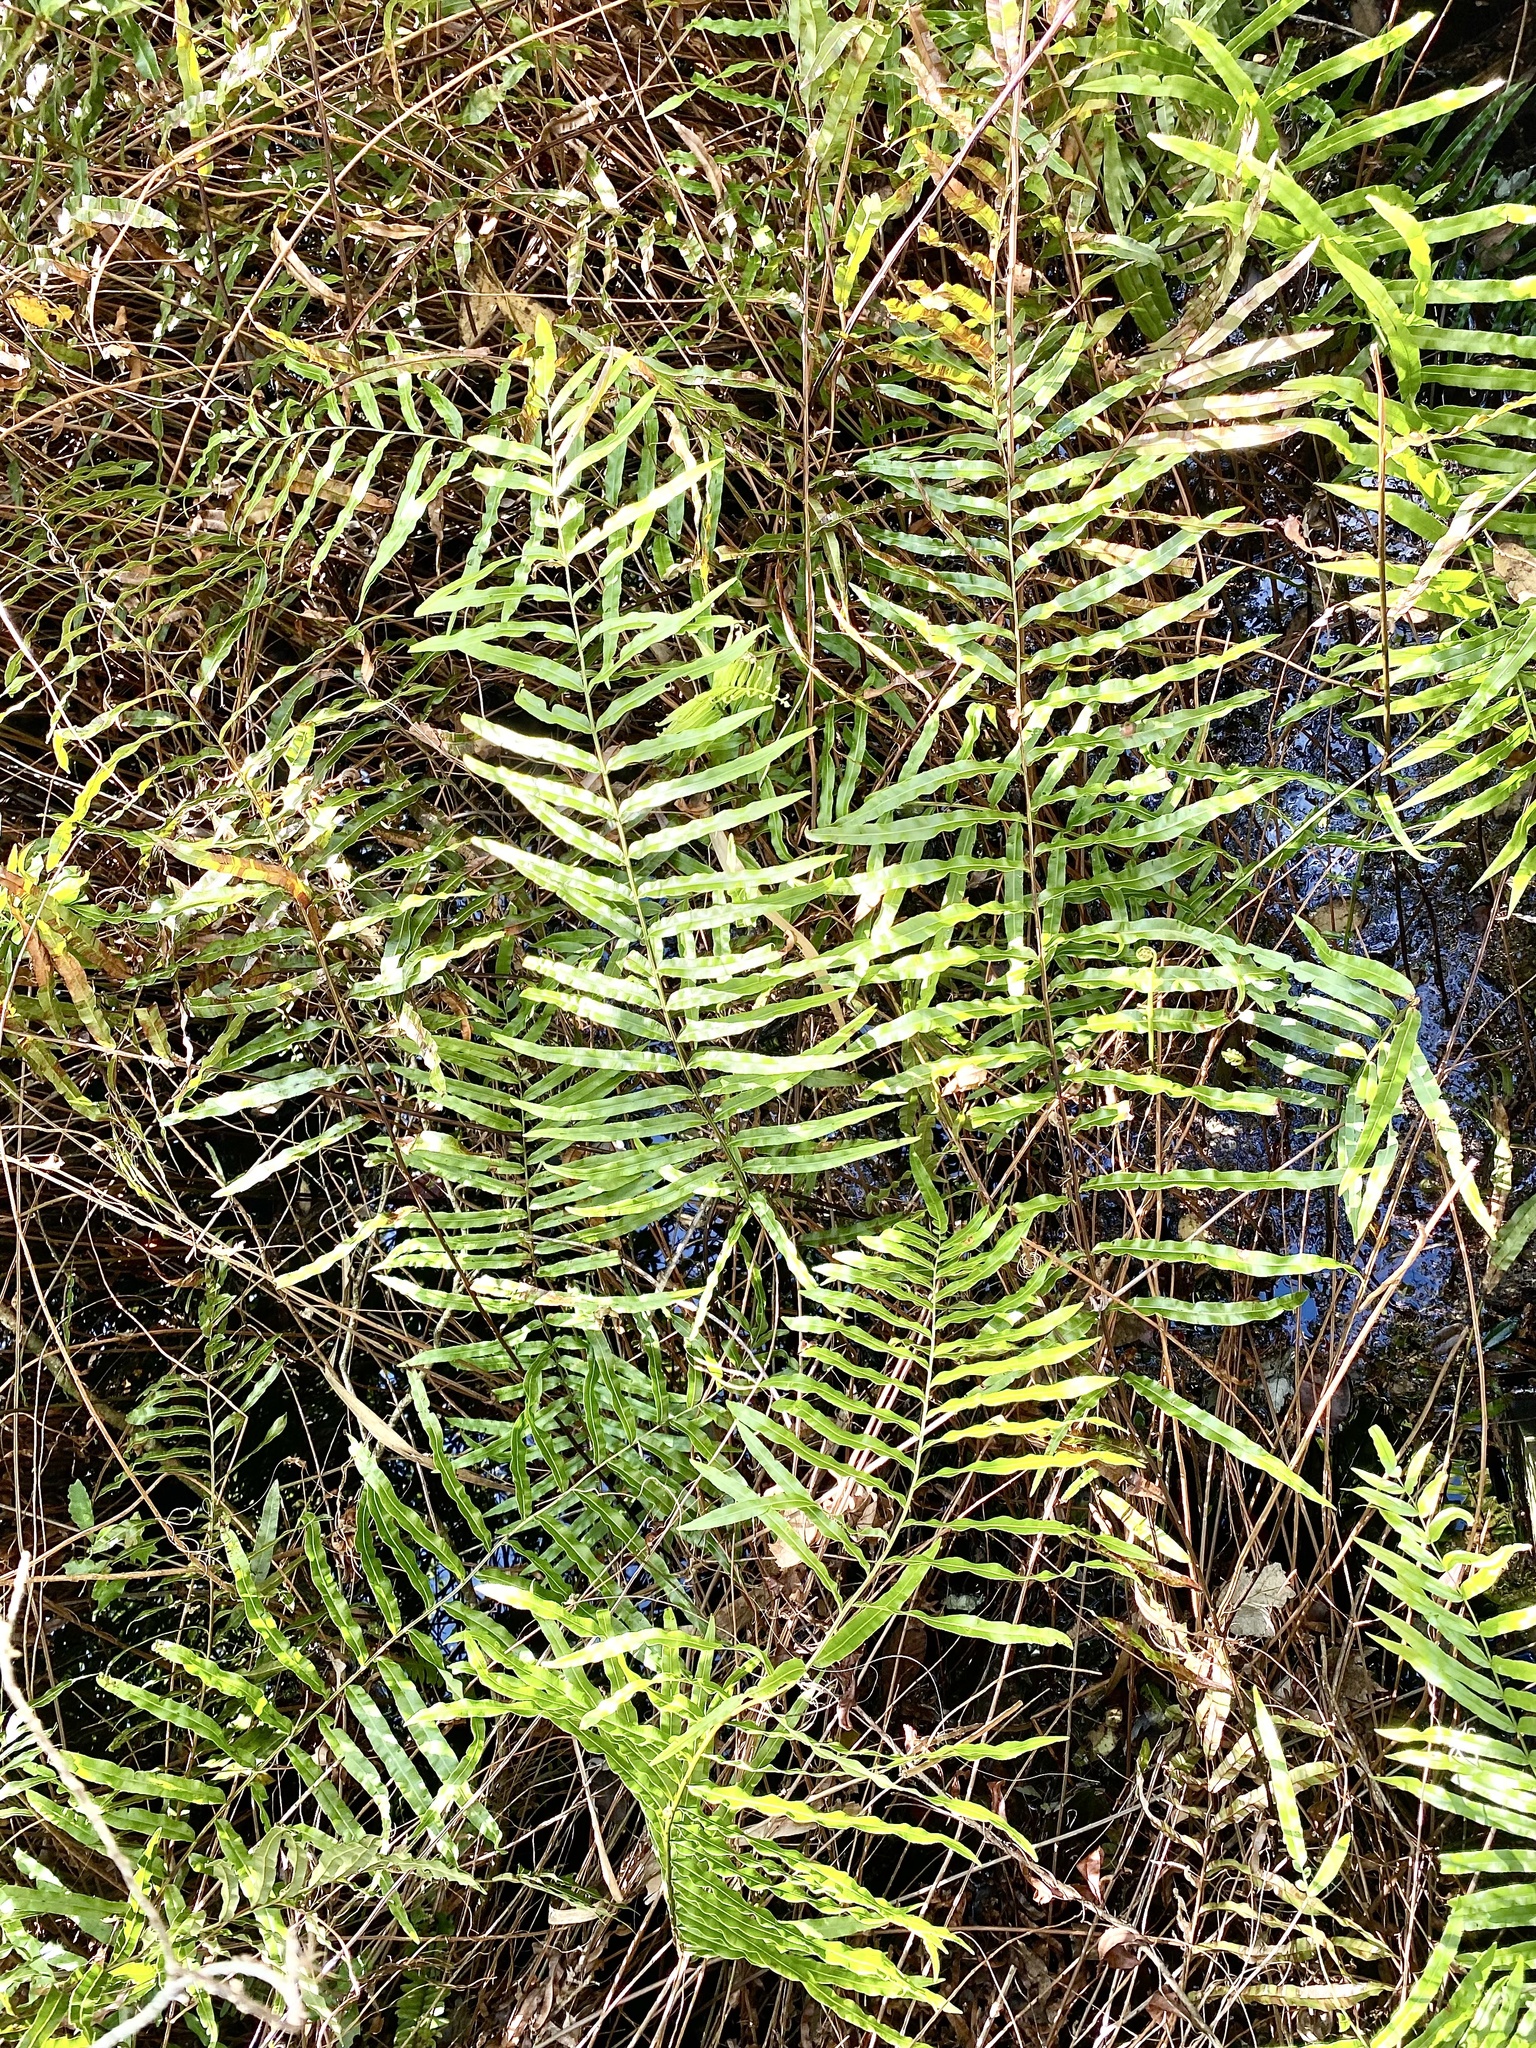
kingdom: Plantae
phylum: Tracheophyta
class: Polypodiopsida
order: Polypodiales
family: Blechnaceae
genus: Telmatoblechnum
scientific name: Telmatoblechnum serrulatum
